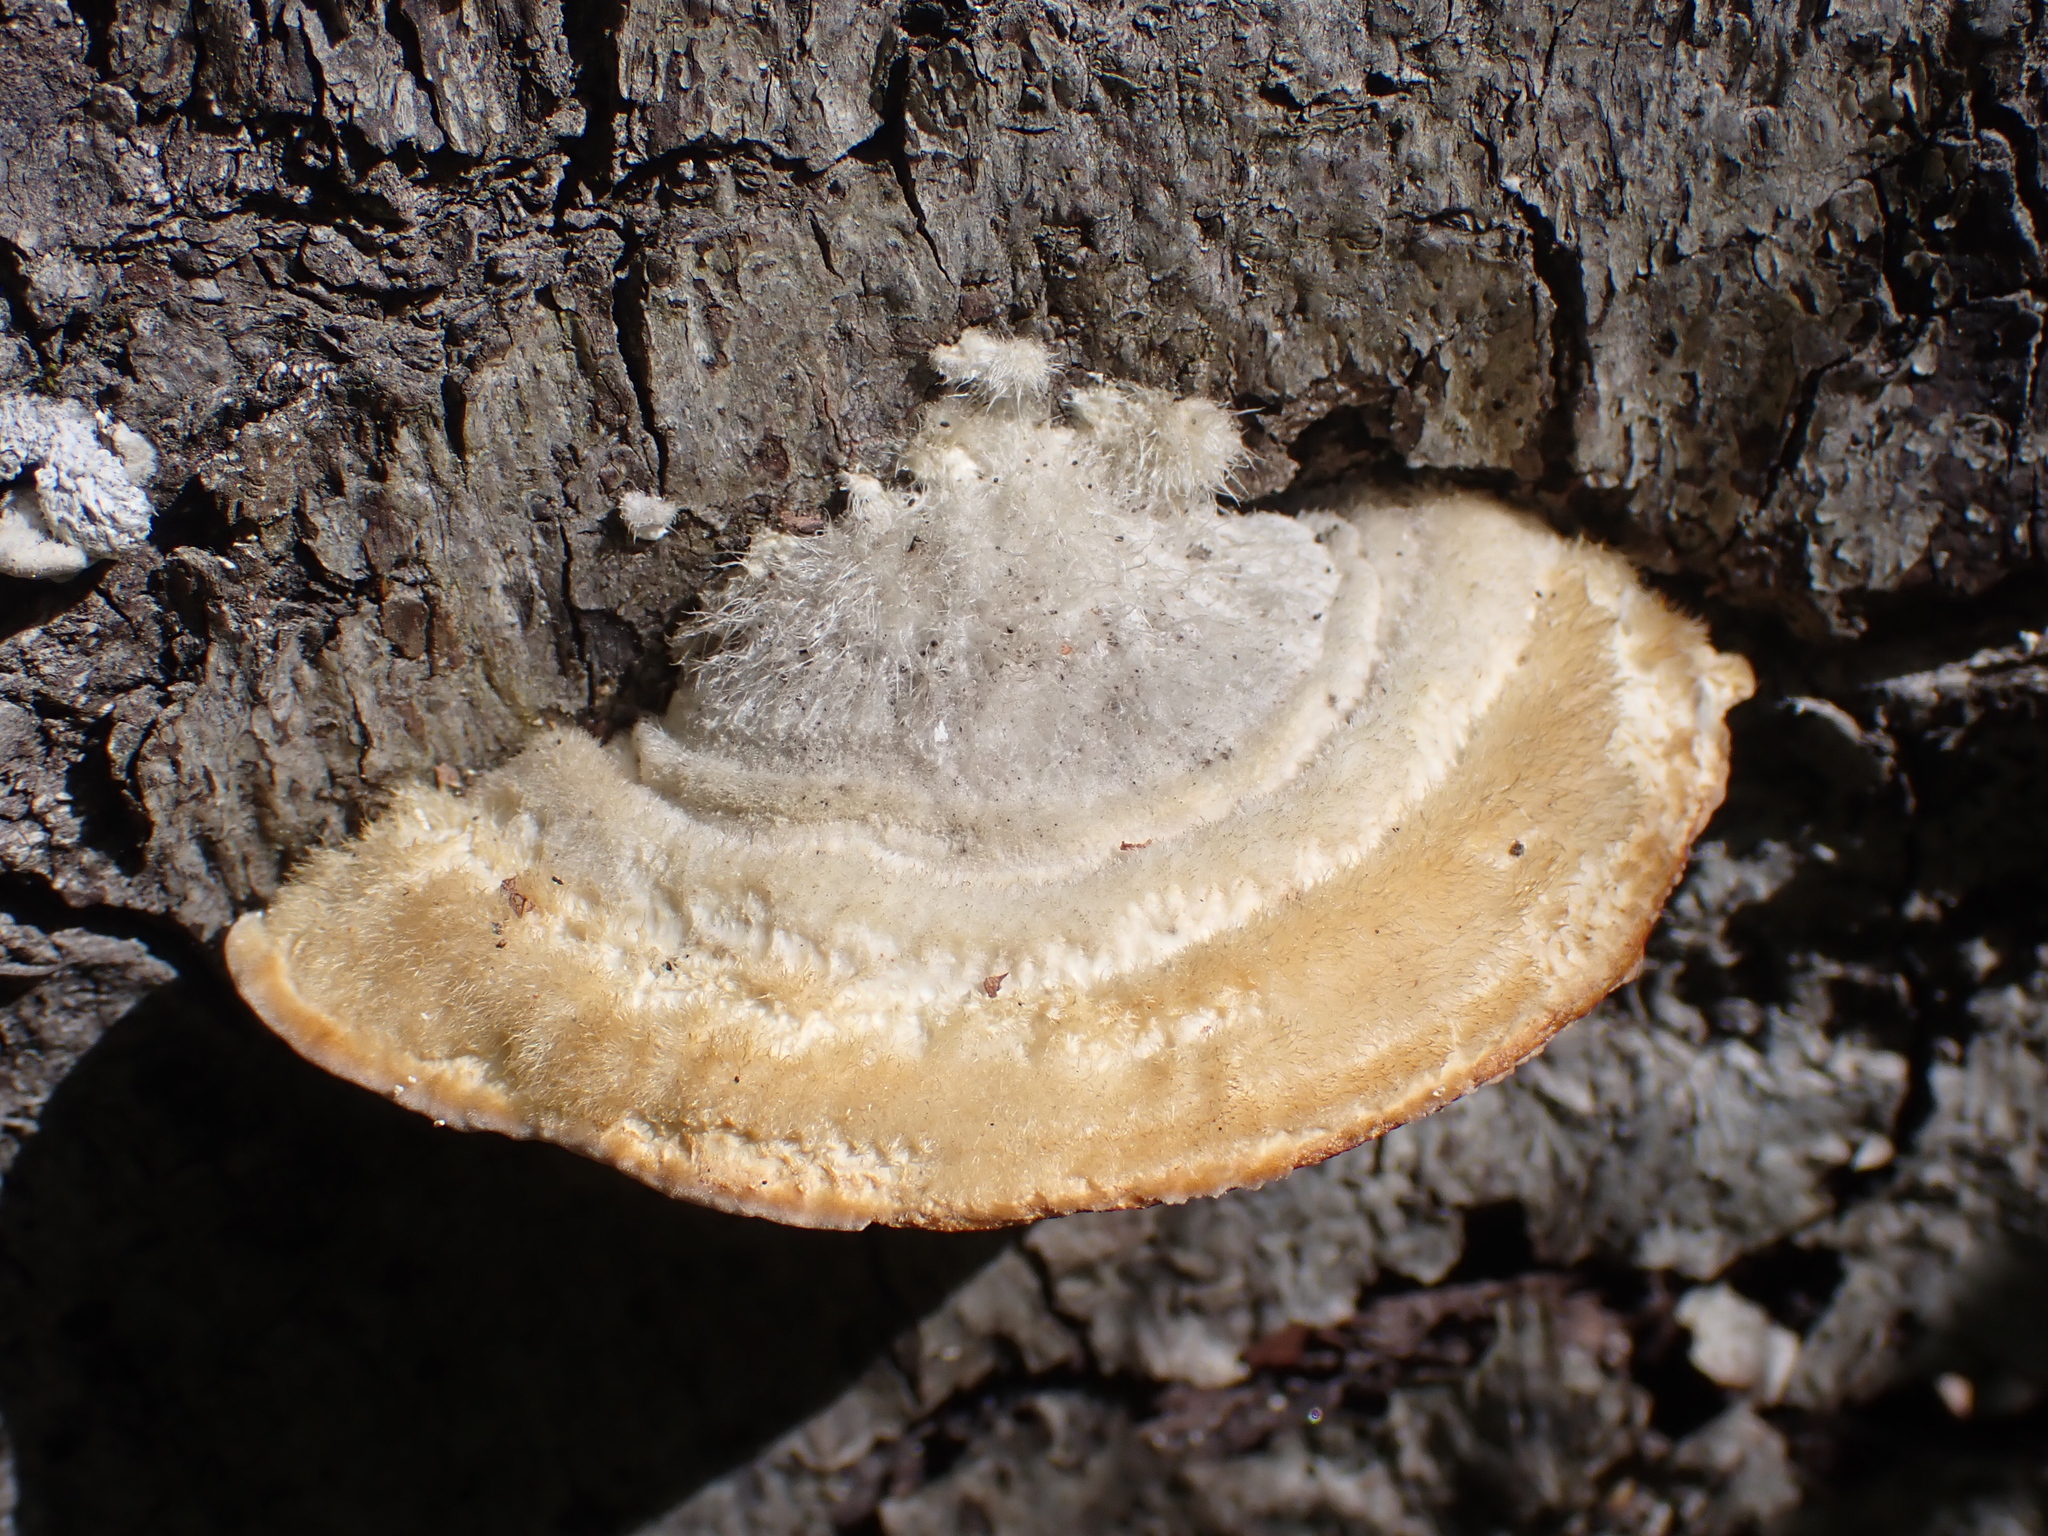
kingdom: Fungi
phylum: Basidiomycota
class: Agaricomycetes
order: Polyporales
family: Polyporaceae
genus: Trametes
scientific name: Trametes hirsuta
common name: Hairy bracket
